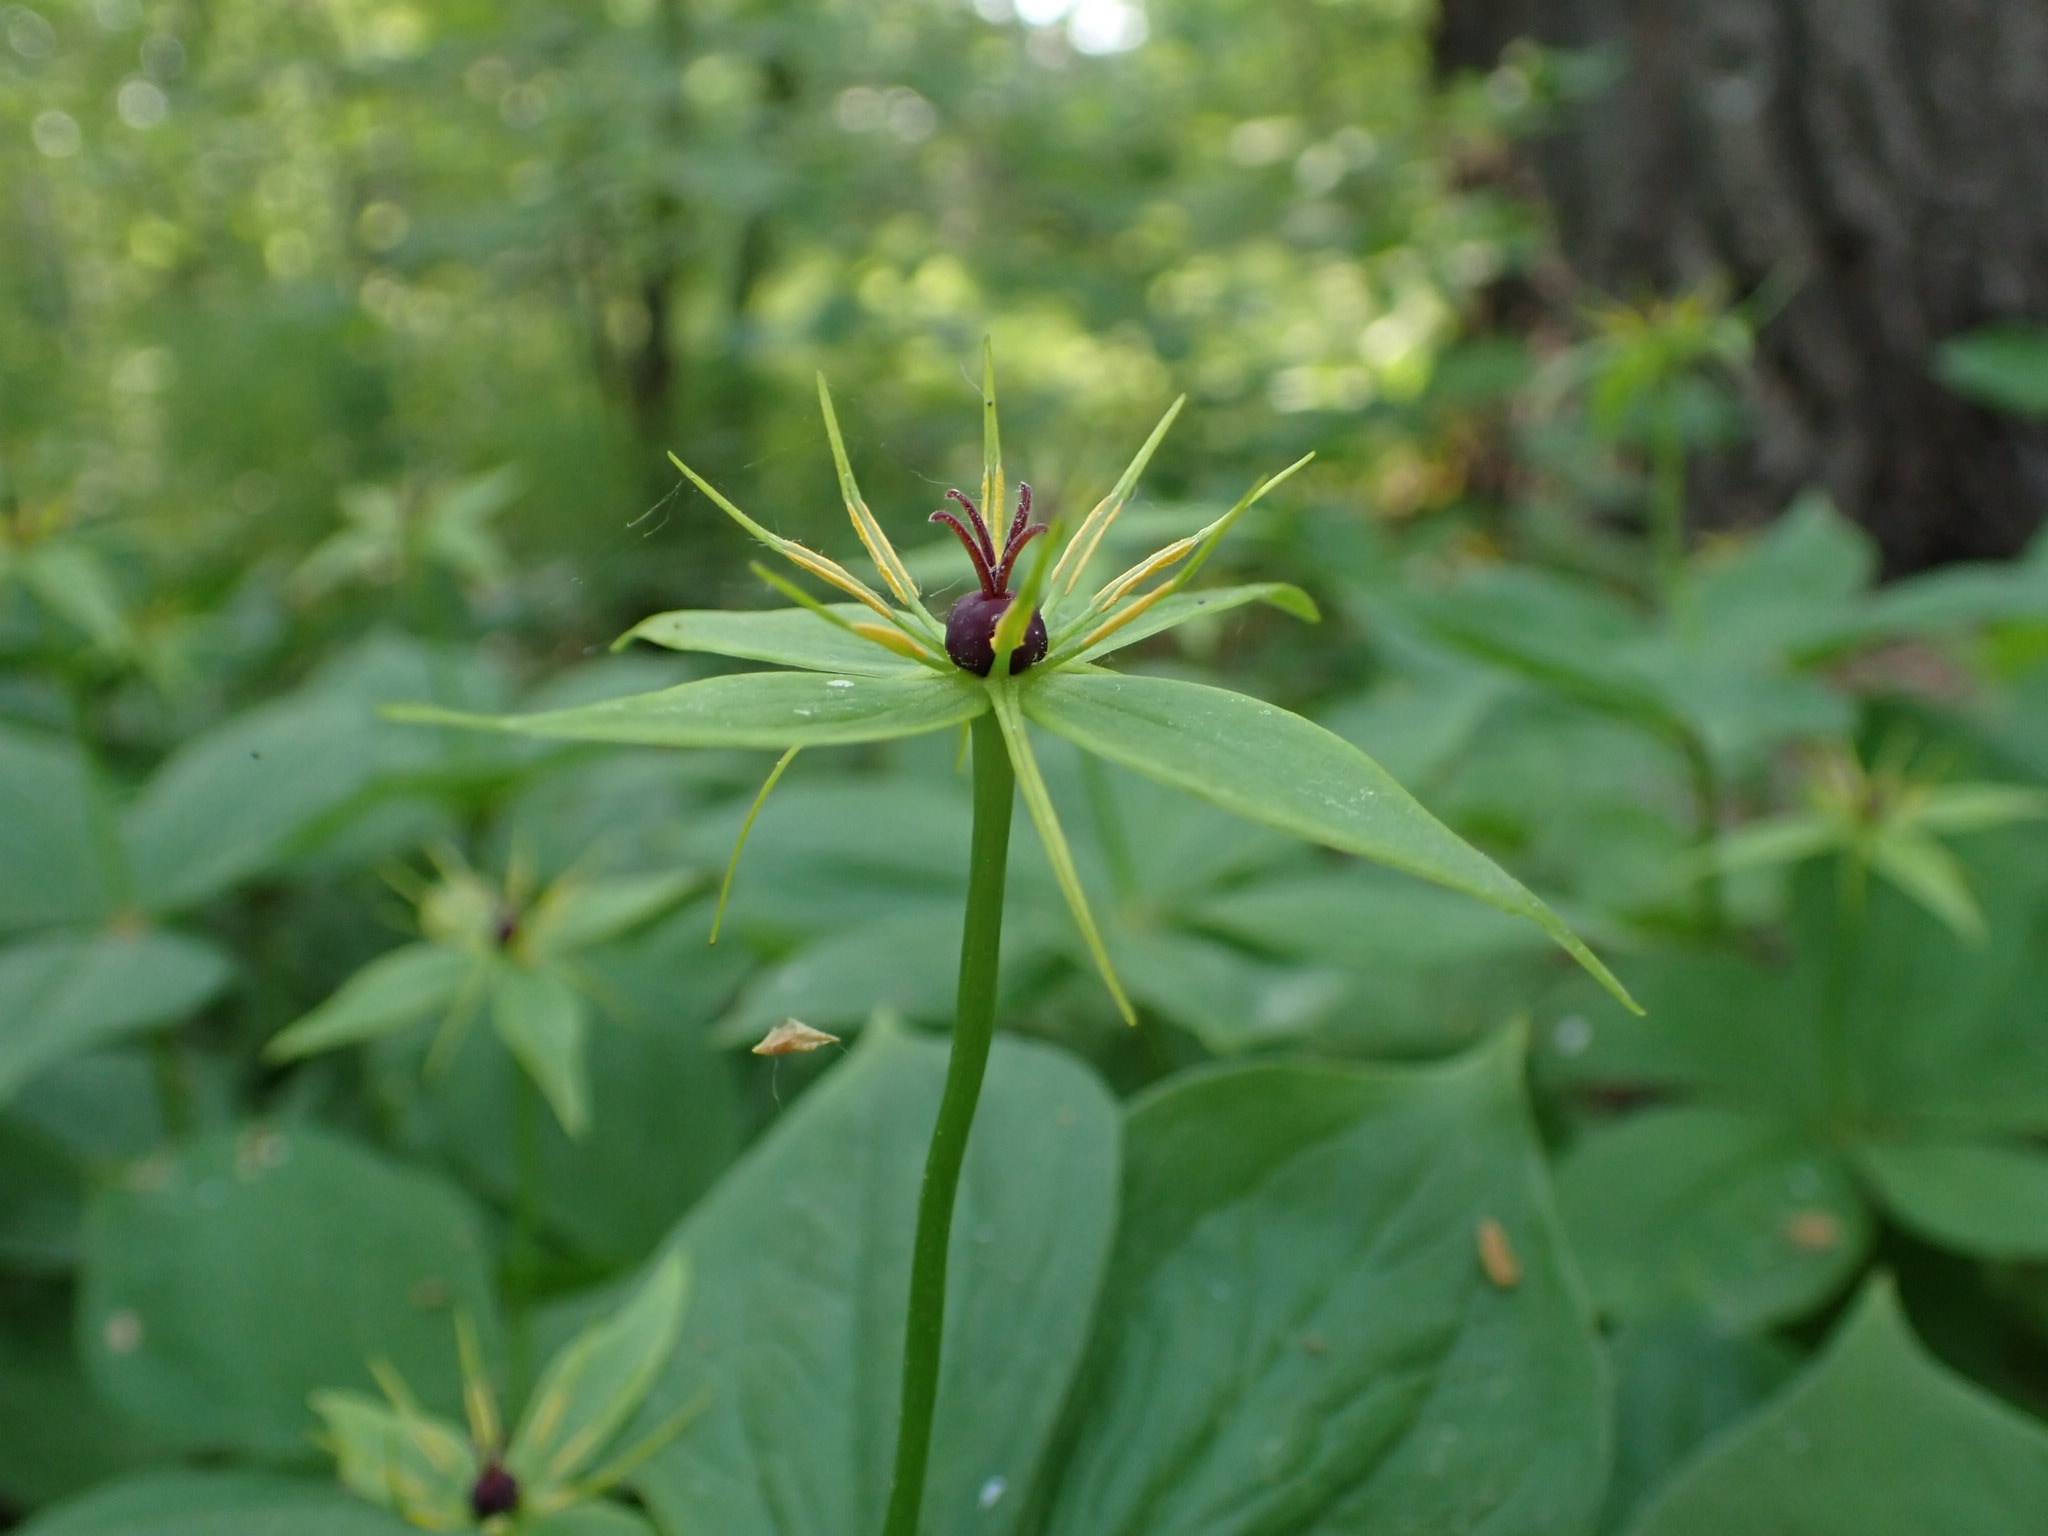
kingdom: Plantae
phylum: Tracheophyta
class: Liliopsida
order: Liliales
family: Melanthiaceae
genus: Paris
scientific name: Paris quadrifolia
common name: Herb-paris
